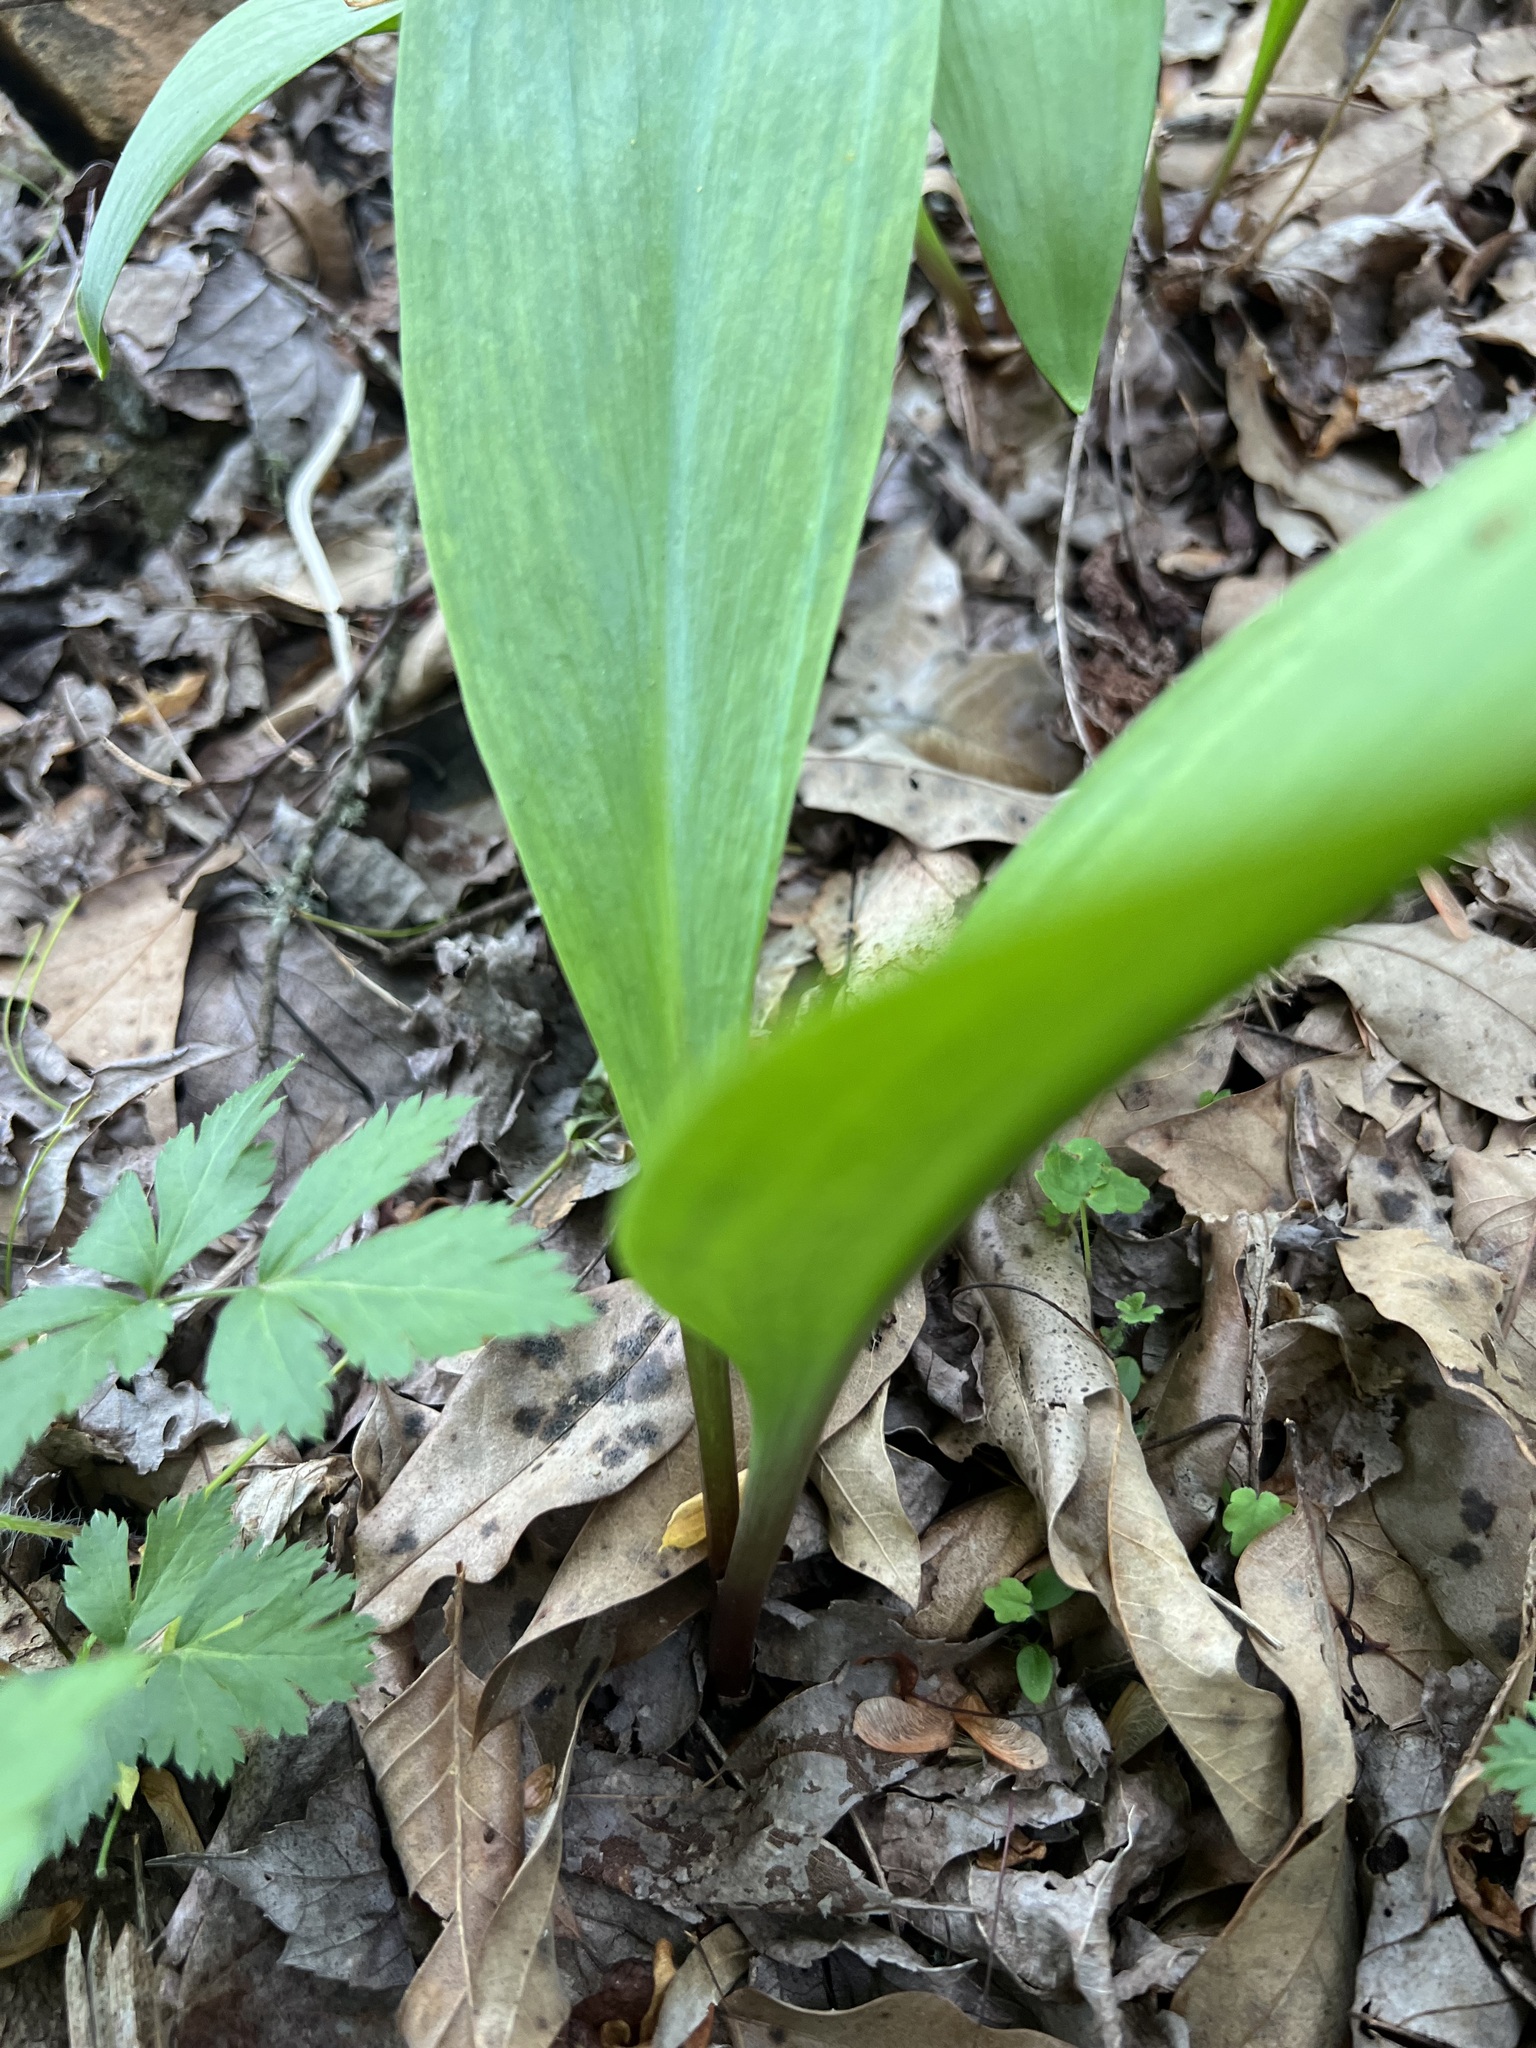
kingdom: Plantae
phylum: Tracheophyta
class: Liliopsida
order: Asparagales
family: Amaryllidaceae
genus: Allium
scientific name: Allium tricoccum
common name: Ramp
